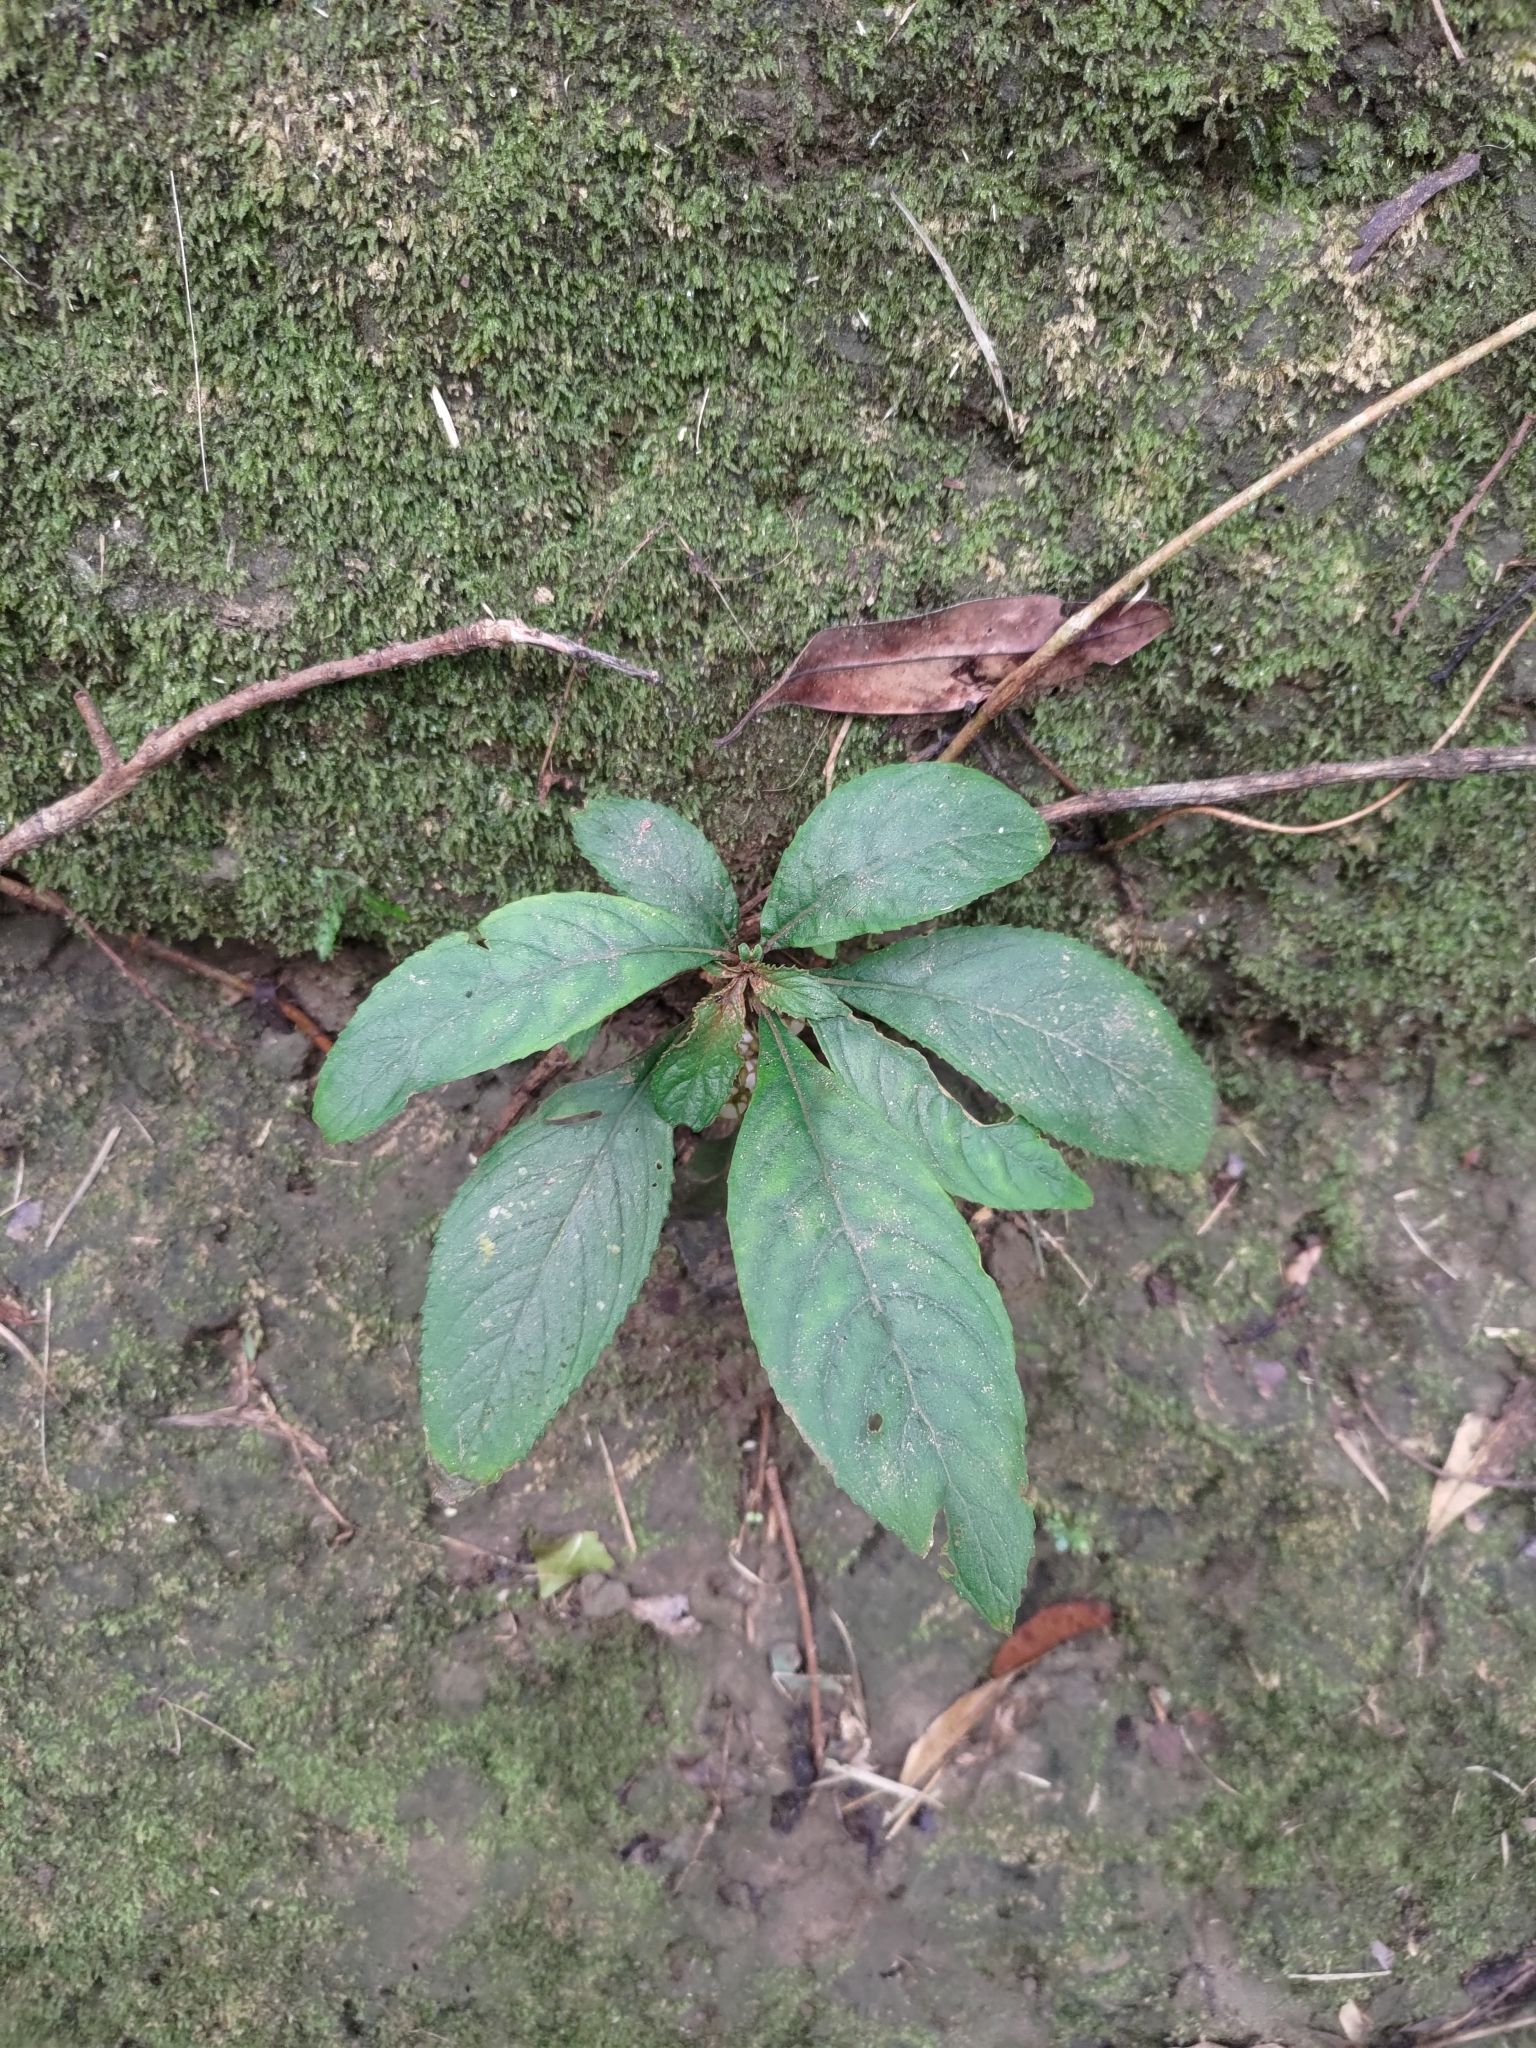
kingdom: Plantae
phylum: Tracheophyta
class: Magnoliopsida
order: Lamiales
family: Gesneriaceae
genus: Rhynchotechum
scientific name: Rhynchotechum discolor
